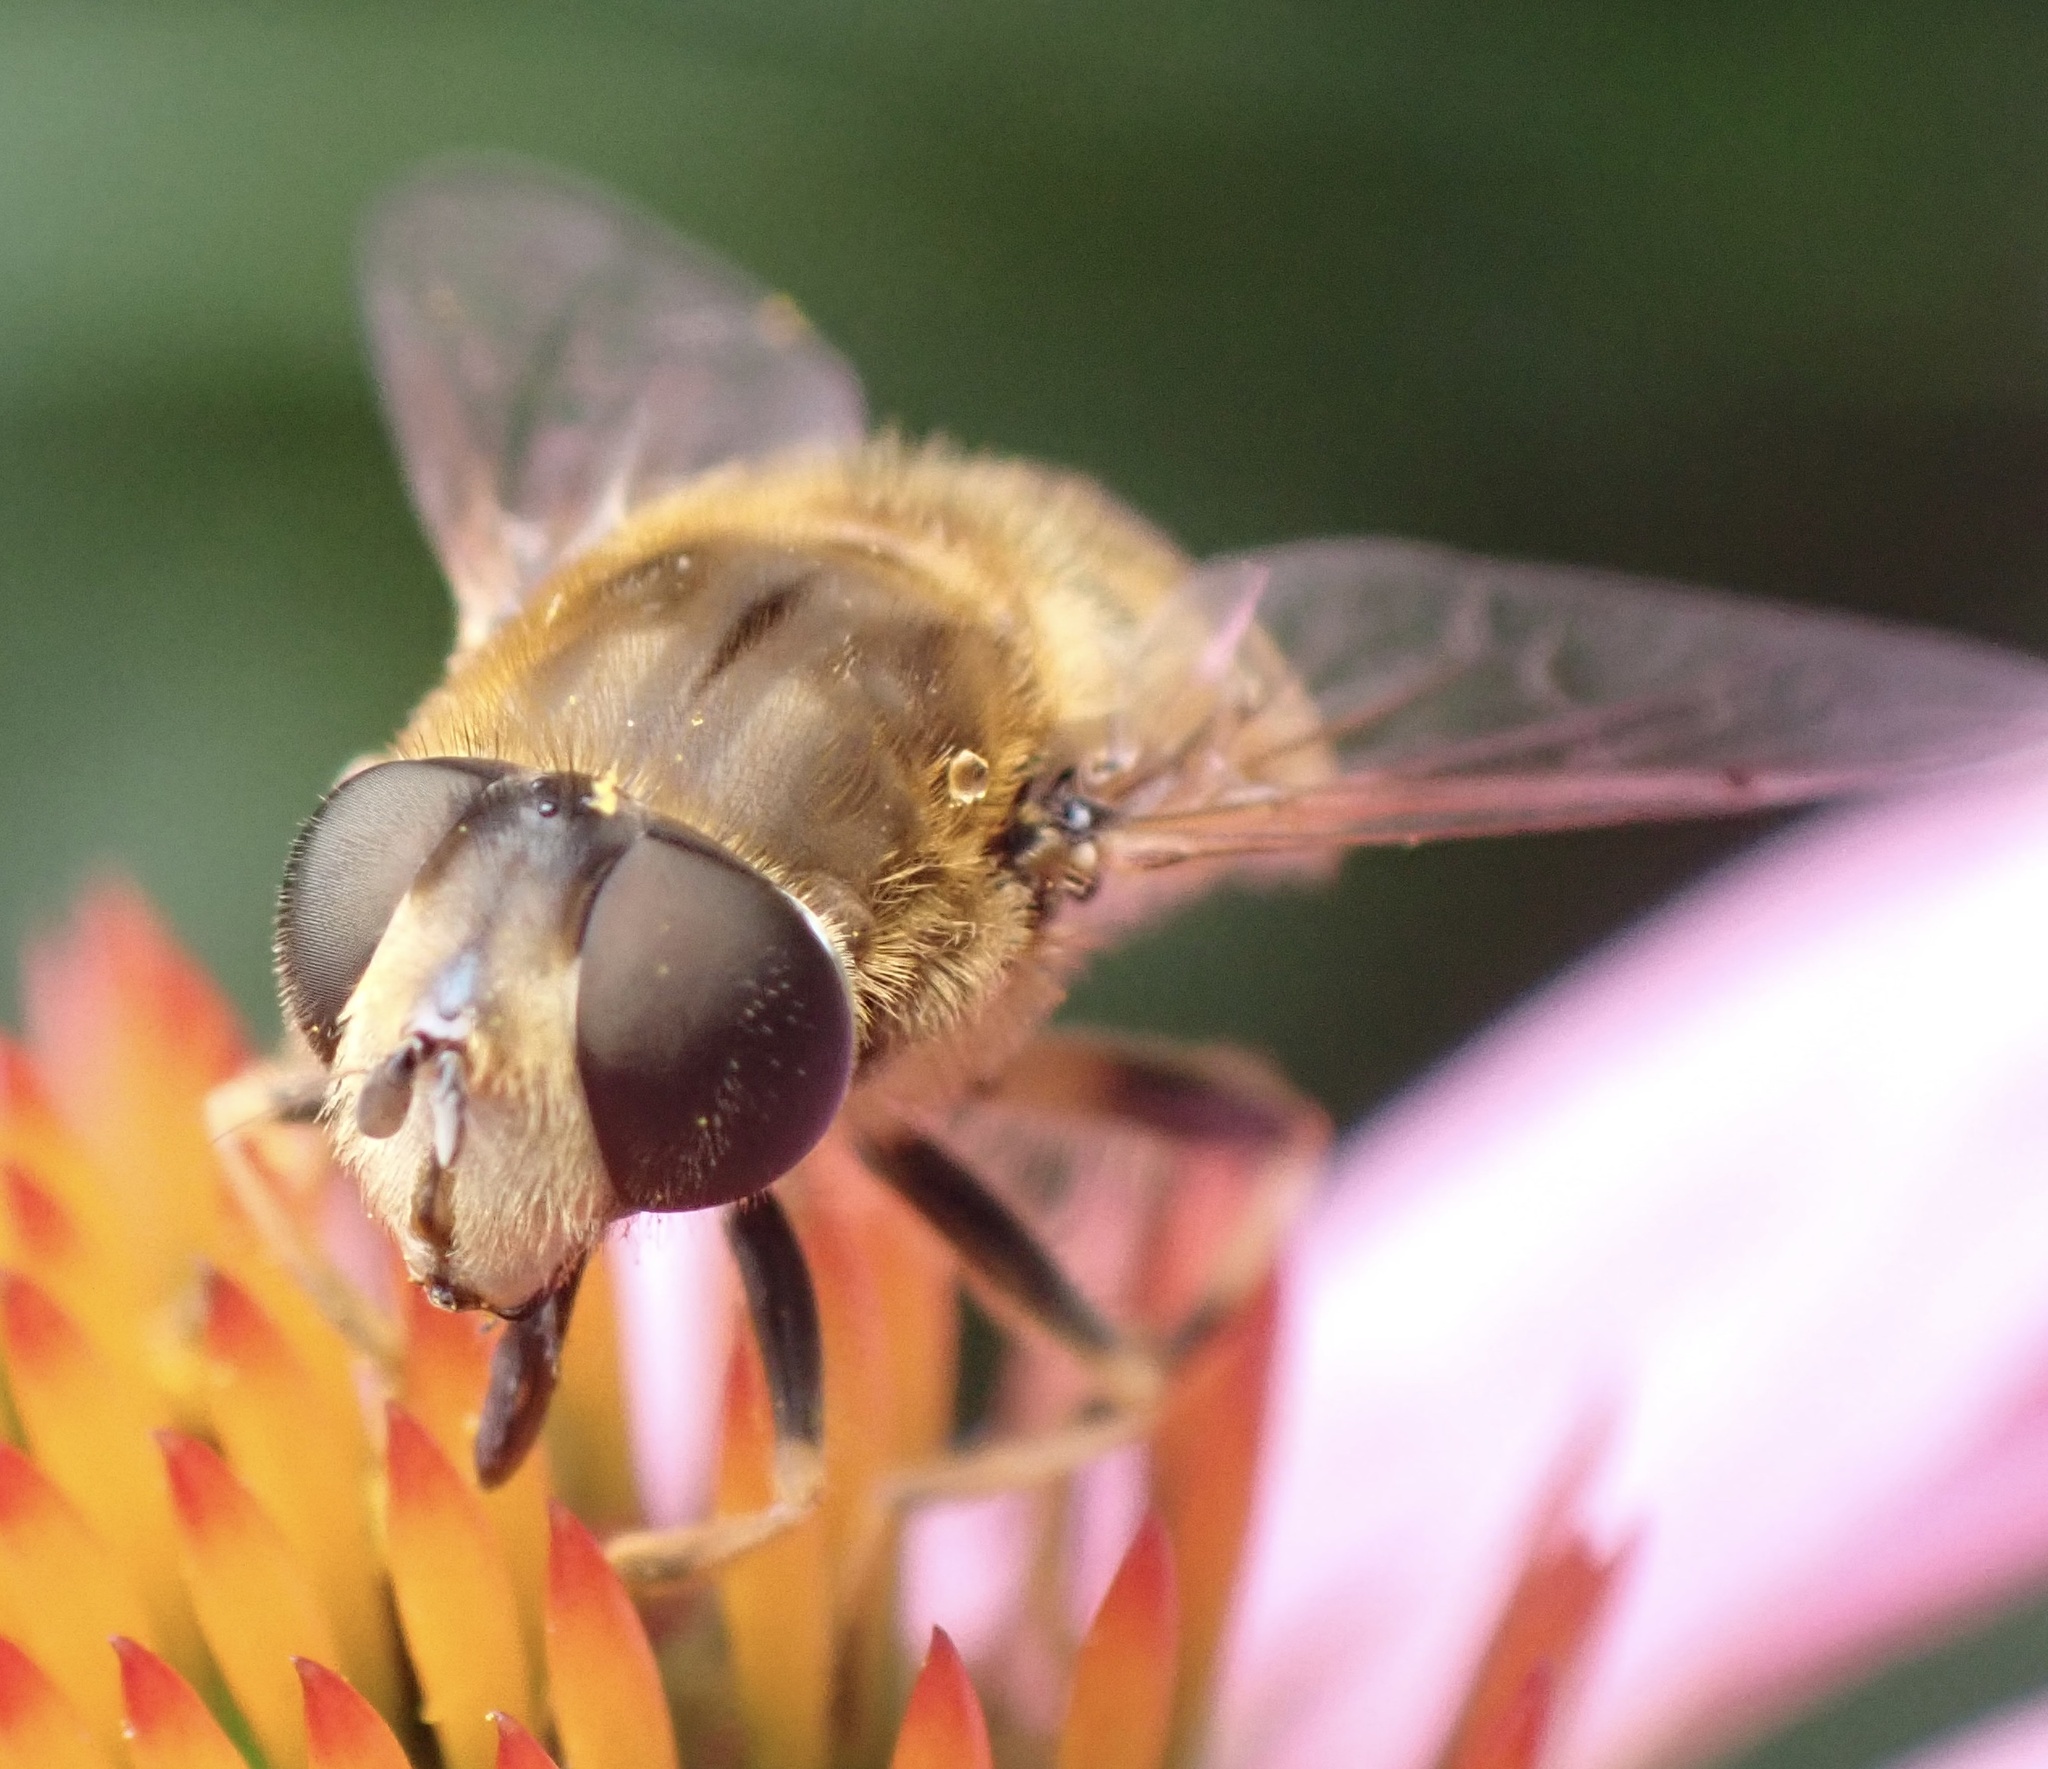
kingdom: Animalia
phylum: Arthropoda
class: Insecta
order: Diptera
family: Syrphidae
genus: Eristalis
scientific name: Eristalis nemorum
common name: Orange-spined drone fly
